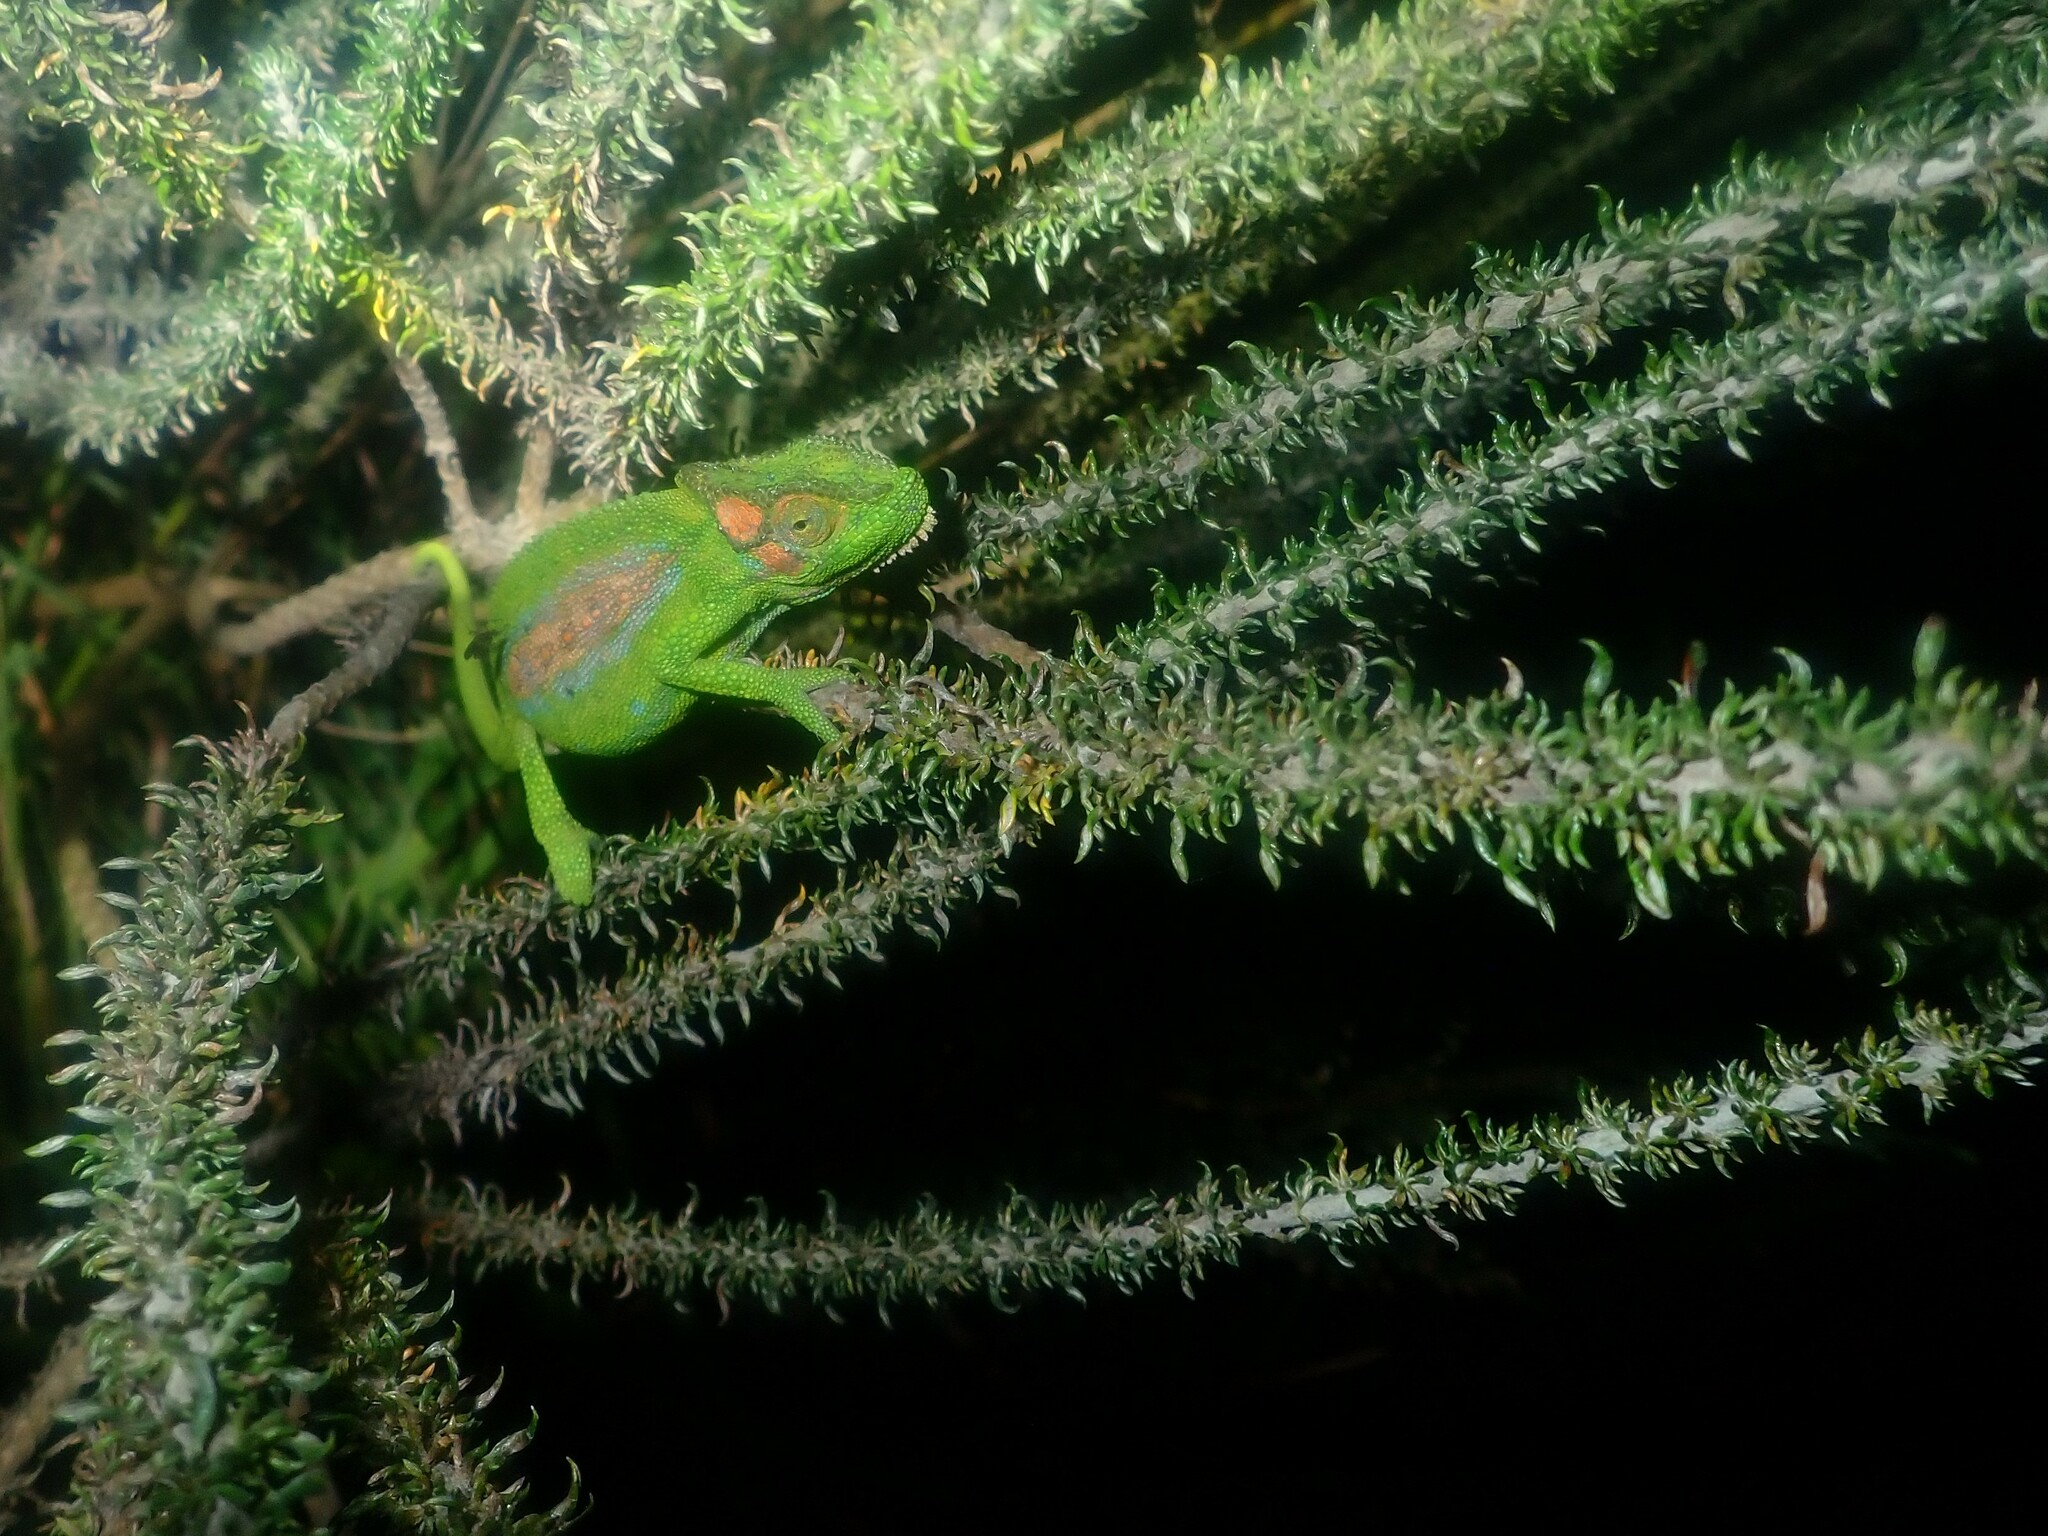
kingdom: Animalia
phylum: Chordata
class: Squamata
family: Chamaeleonidae
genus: Bradypodion
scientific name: Bradypodion pumilum
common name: Cape dwarf chameleon
